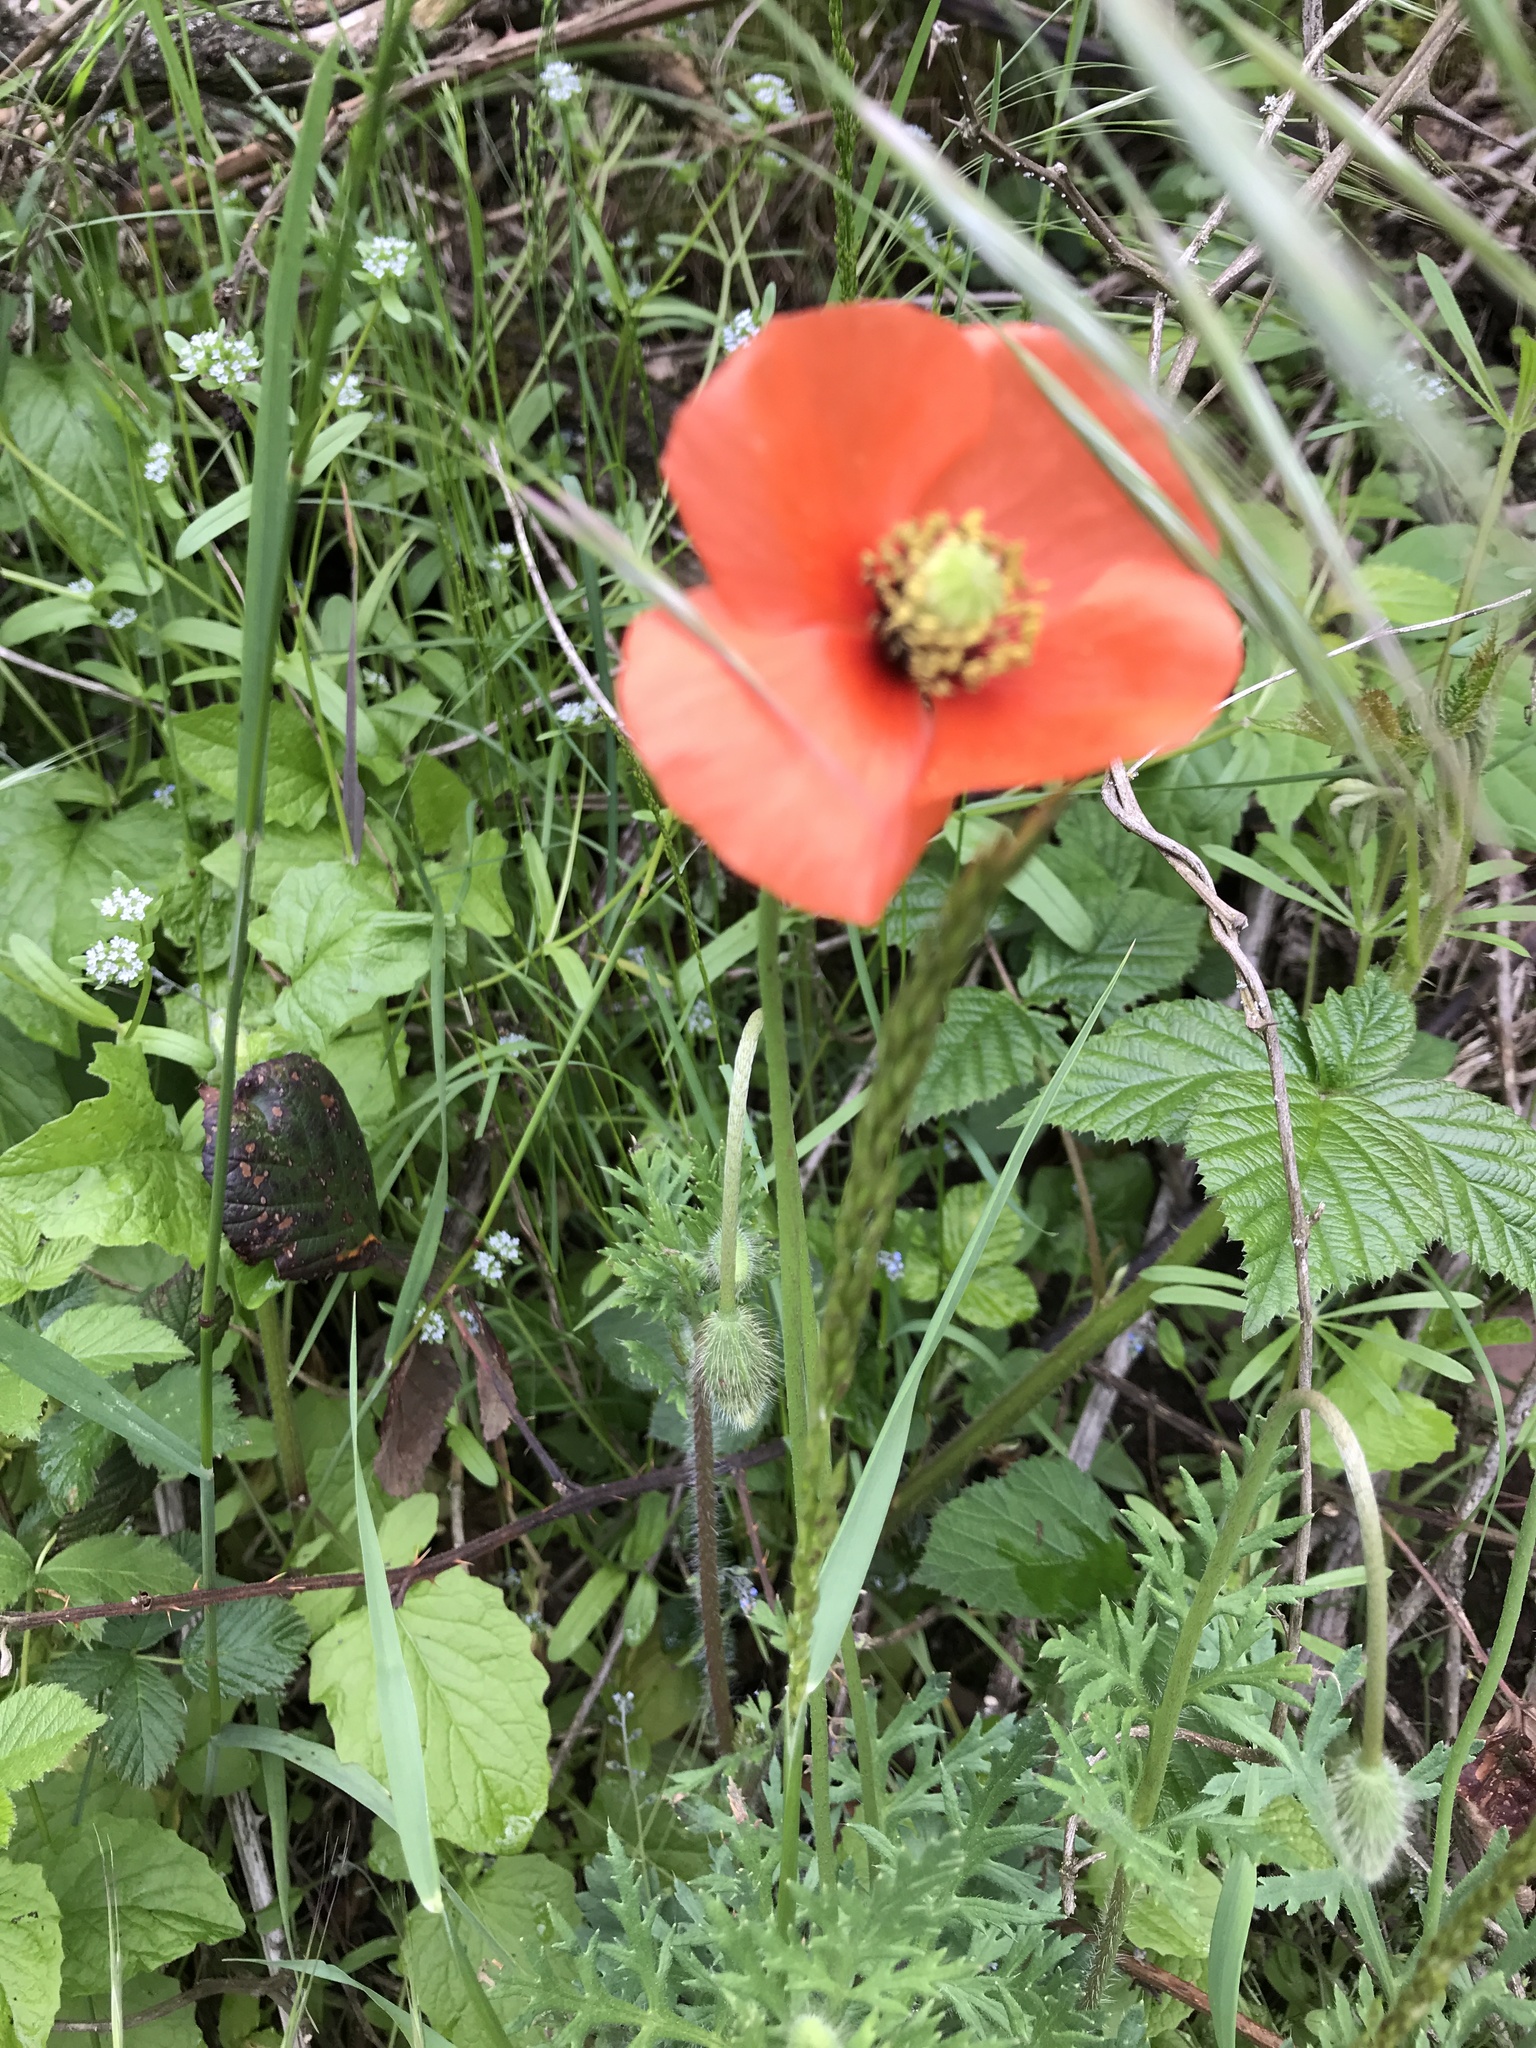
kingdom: Plantae
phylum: Tracheophyta
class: Magnoliopsida
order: Ranunculales
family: Papaveraceae
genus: Papaver
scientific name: Papaver dubium
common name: Long-headed poppy
